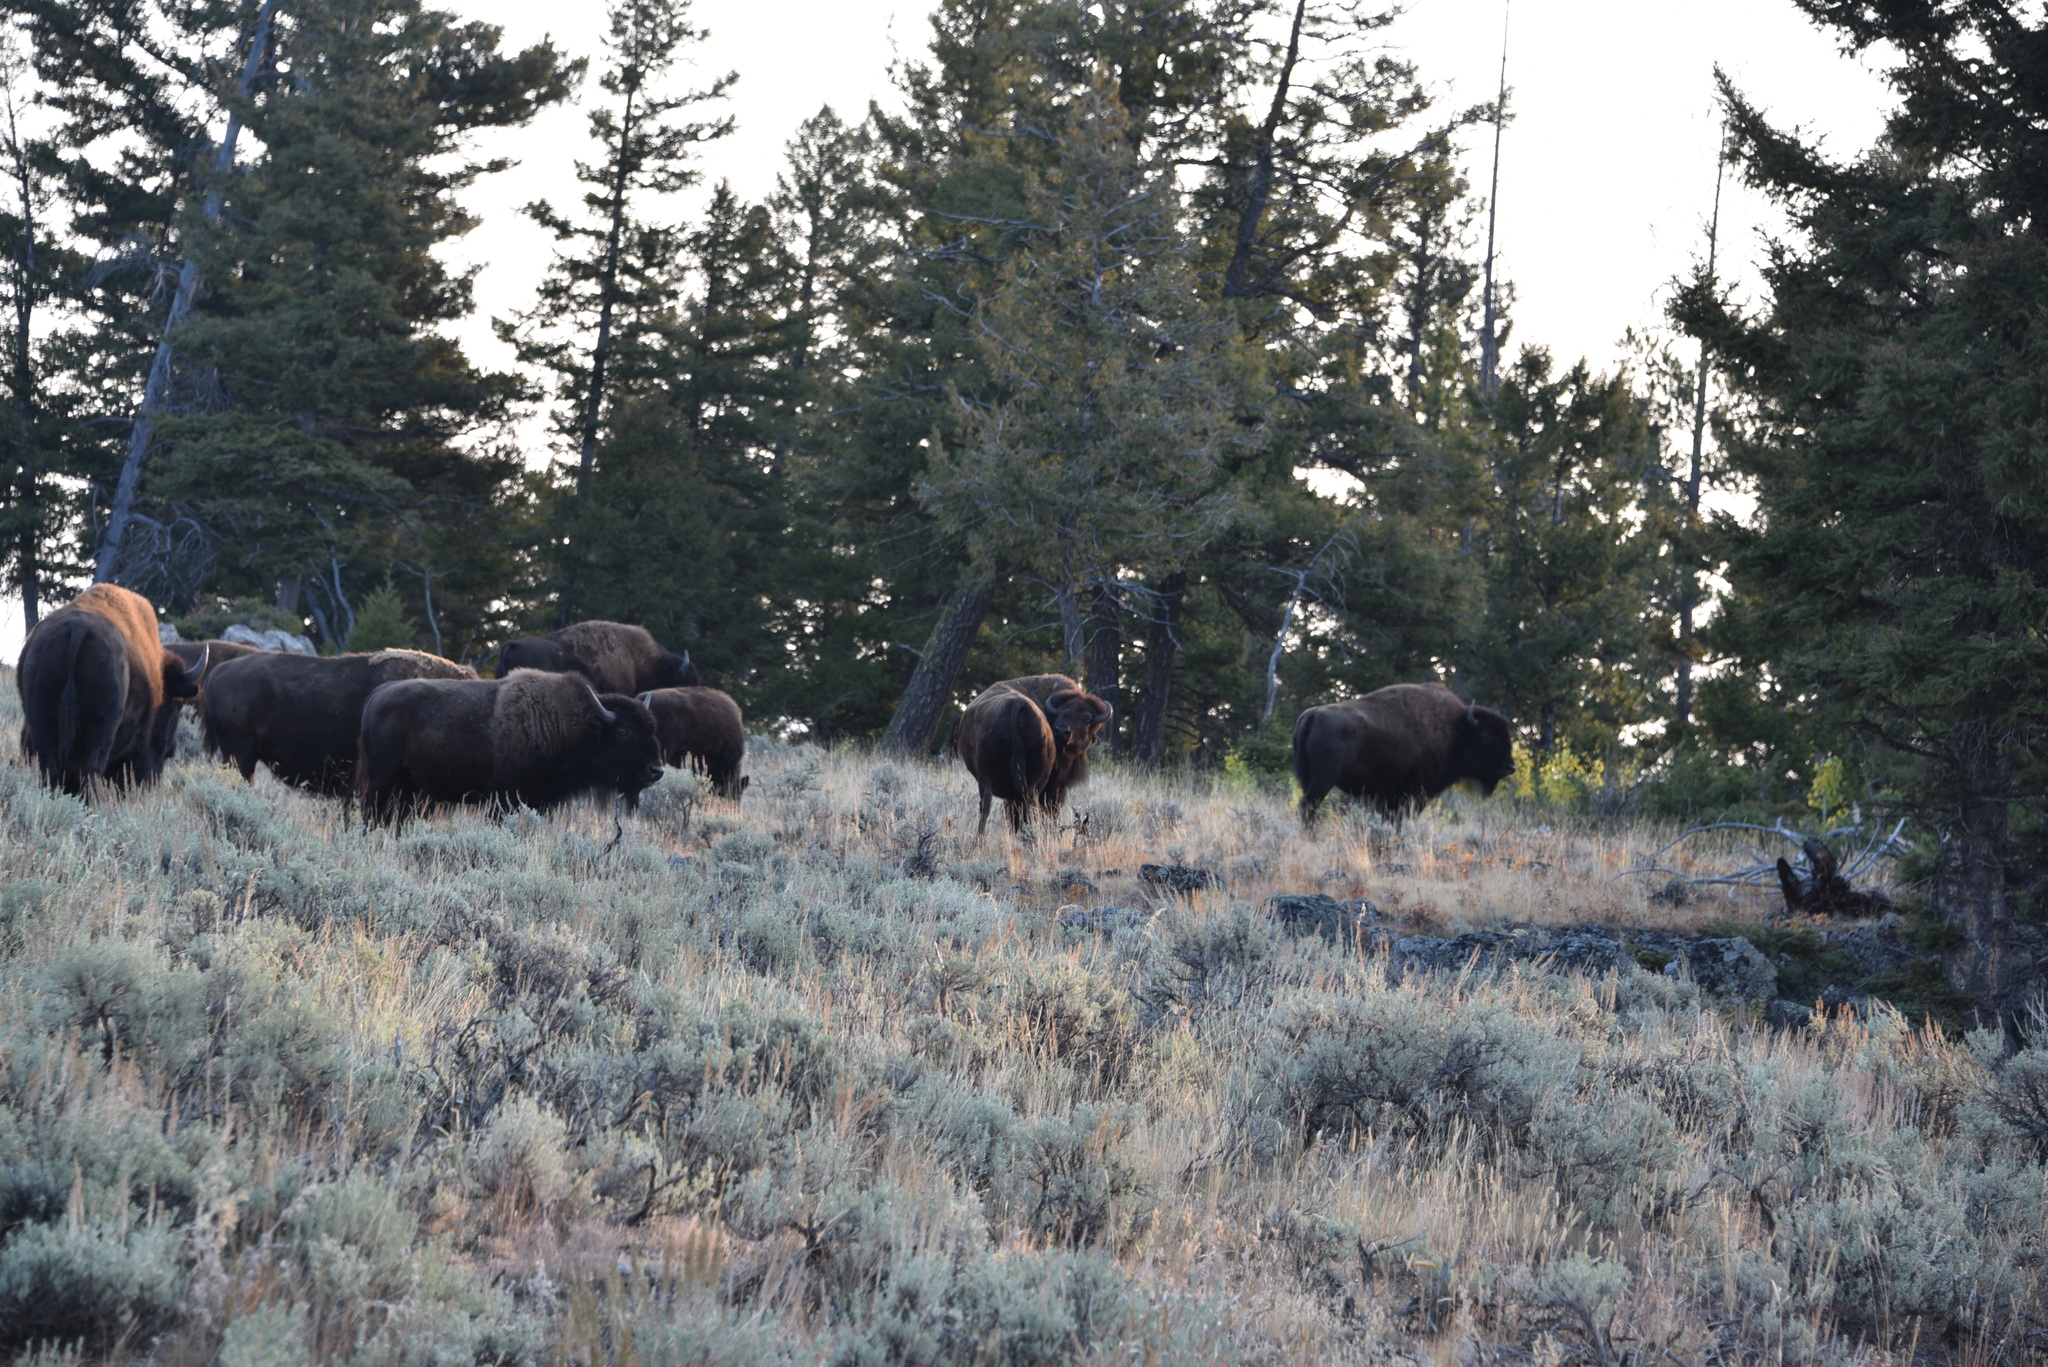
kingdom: Animalia
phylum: Chordata
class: Mammalia
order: Artiodactyla
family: Bovidae
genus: Bison
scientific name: Bison bison
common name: American bison
